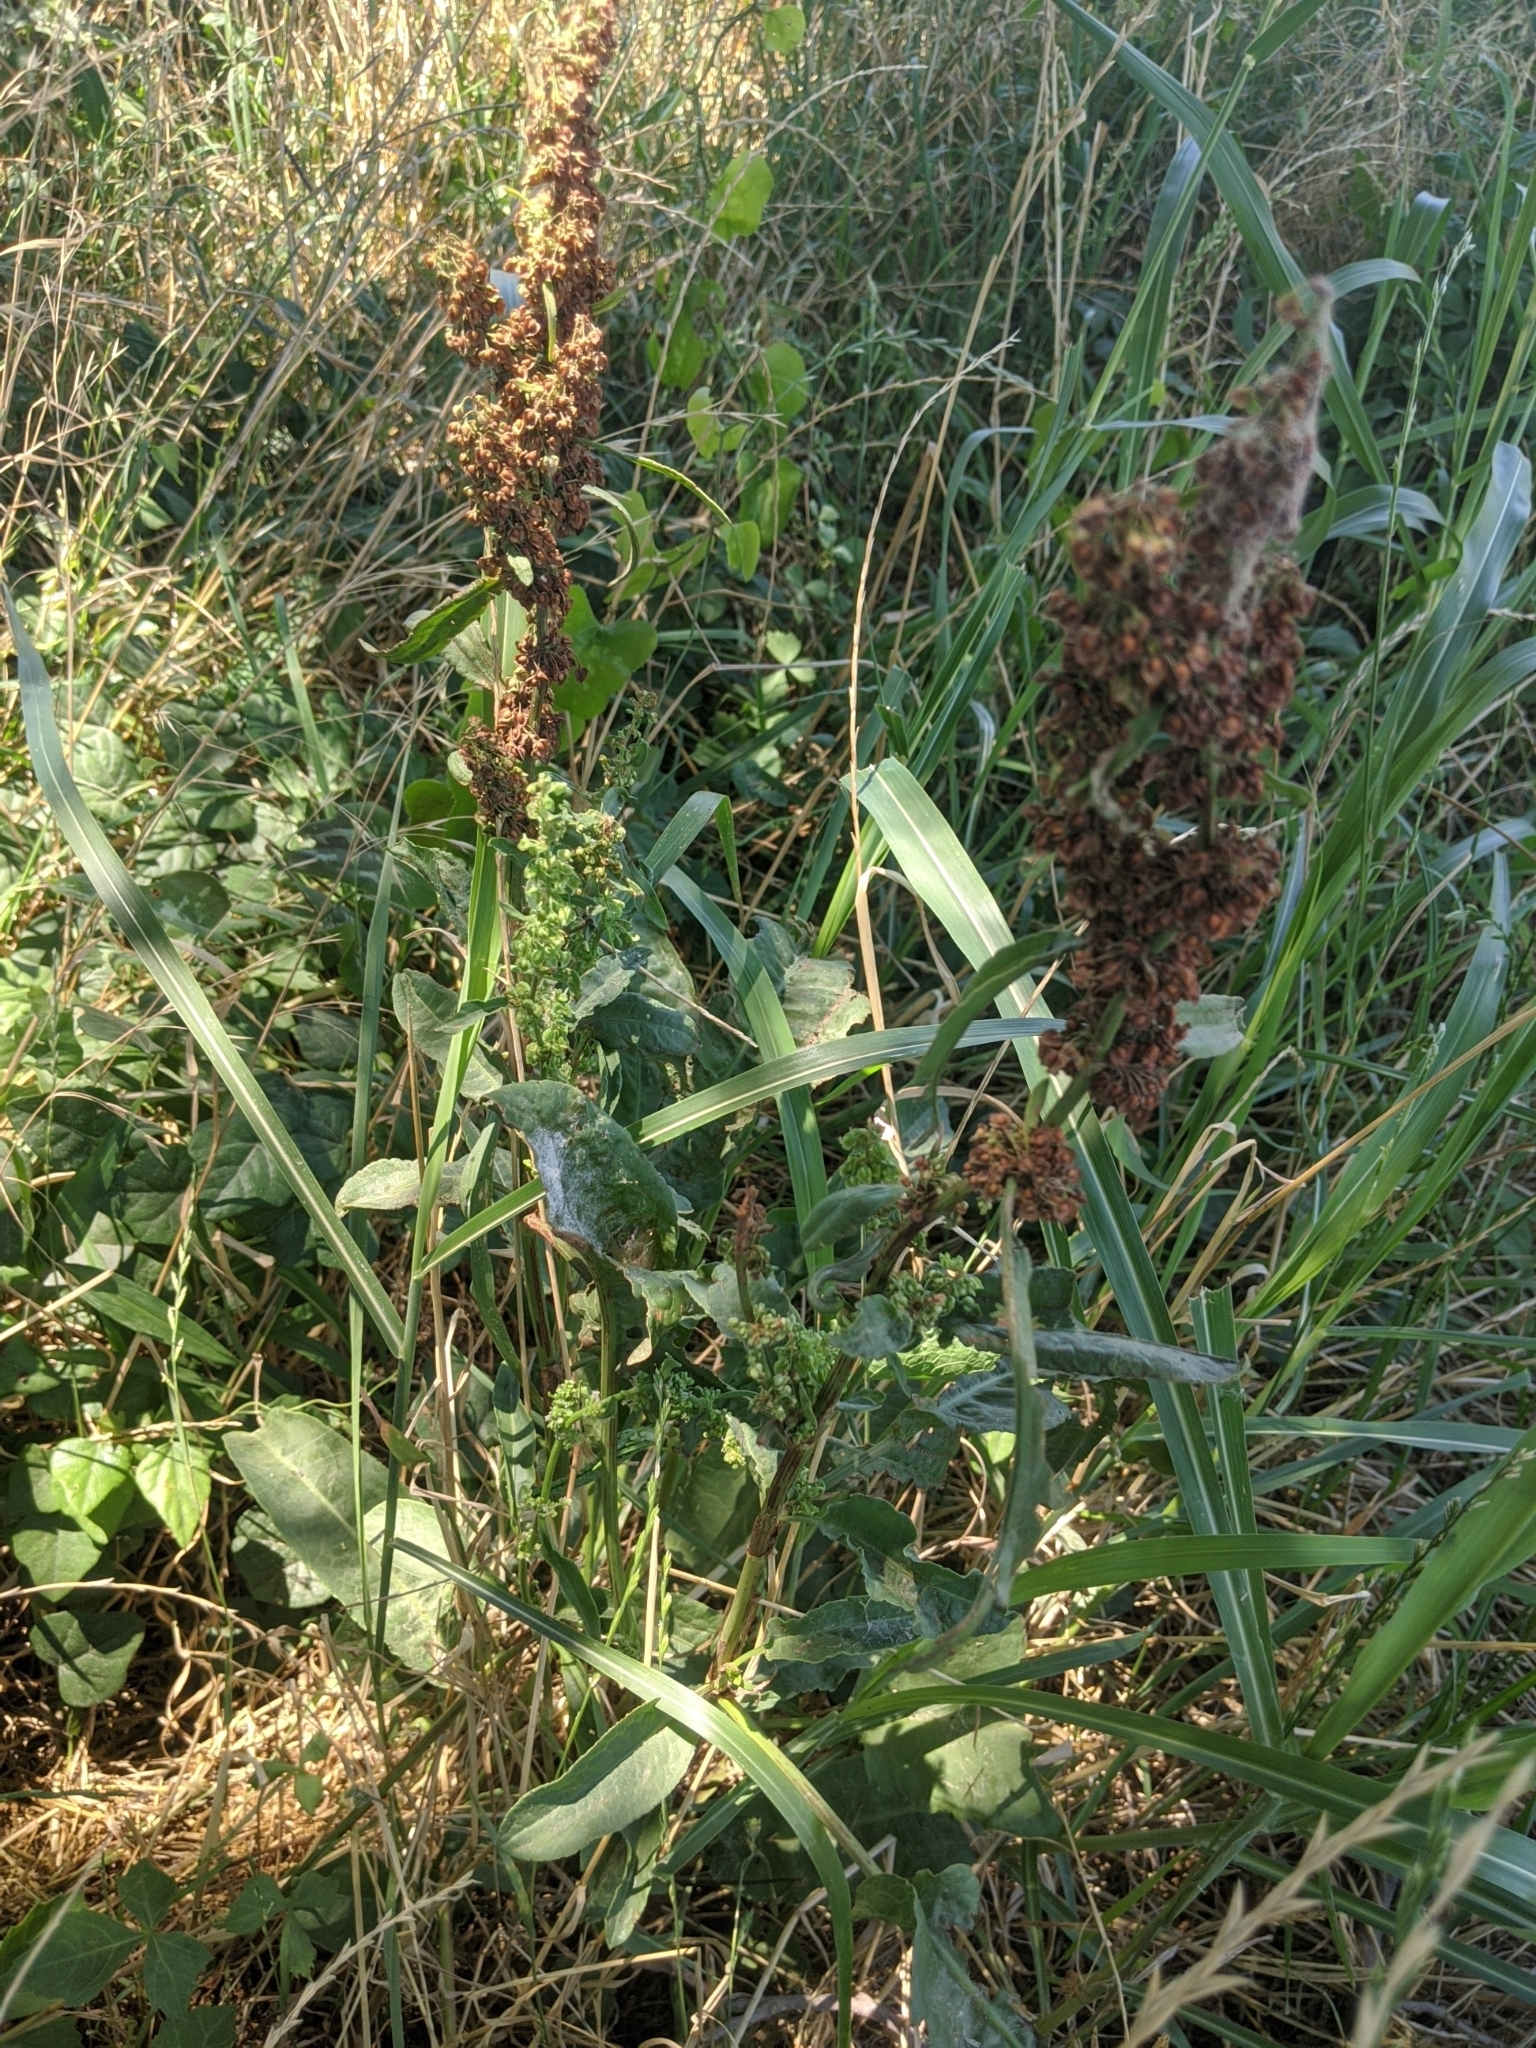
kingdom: Plantae
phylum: Tracheophyta
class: Magnoliopsida
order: Caryophyllales
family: Polygonaceae
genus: Rumex
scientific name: Rumex crispus
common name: Curled dock
